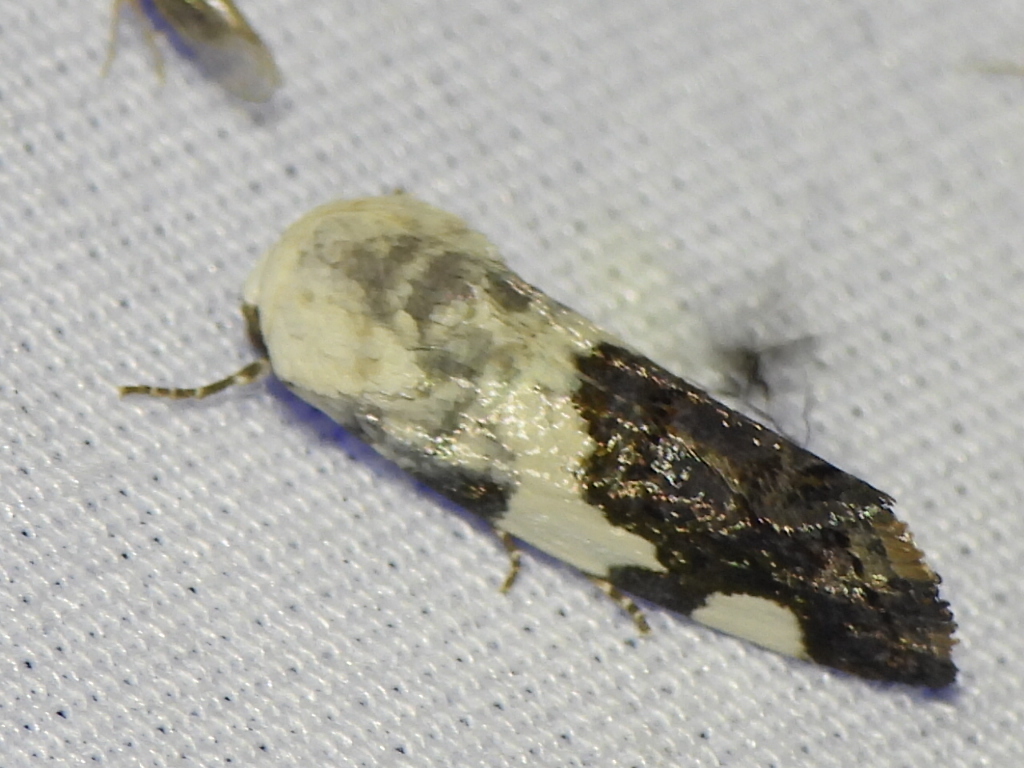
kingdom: Animalia
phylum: Arthropoda
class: Insecta
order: Lepidoptera
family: Noctuidae
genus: Acontia
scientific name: Acontia quadriplaga
